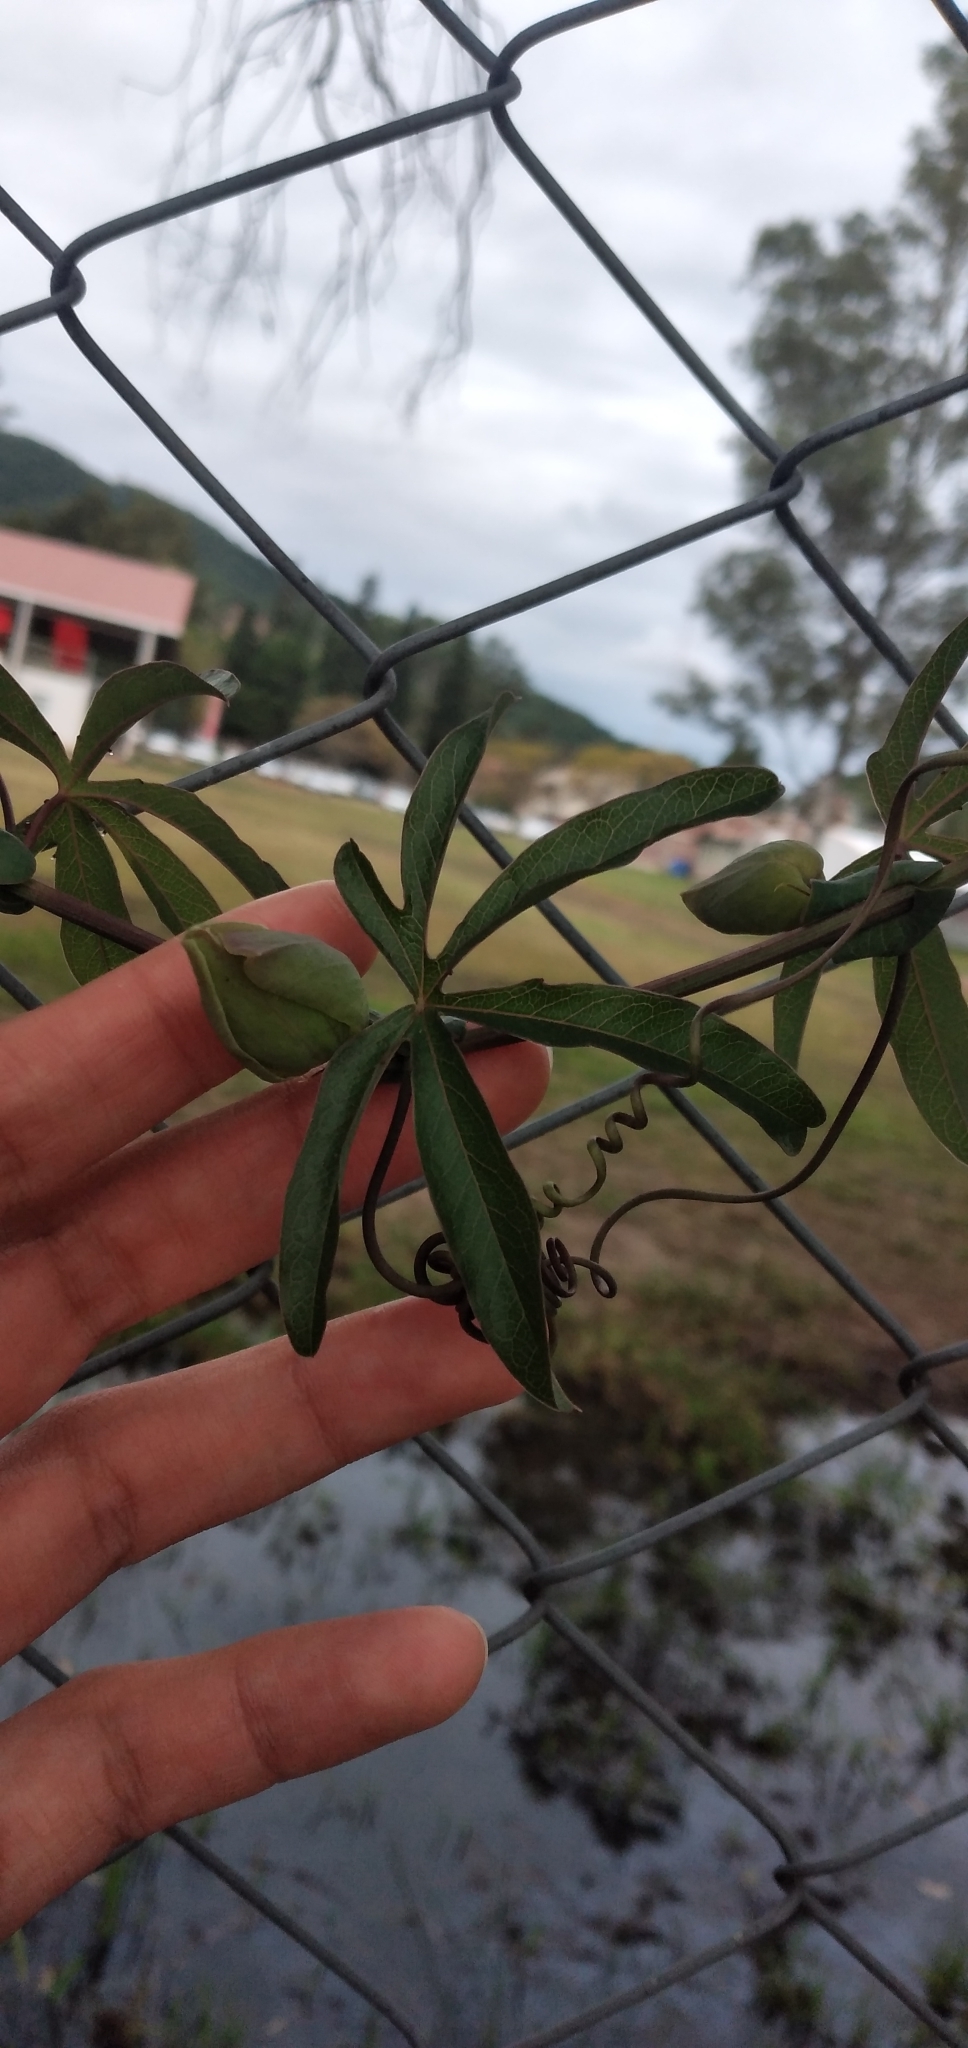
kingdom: Plantae
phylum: Tracheophyta
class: Magnoliopsida
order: Malpighiales
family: Passifloraceae
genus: Passiflora
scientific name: Passiflora caerulea
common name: Blue passionflower
